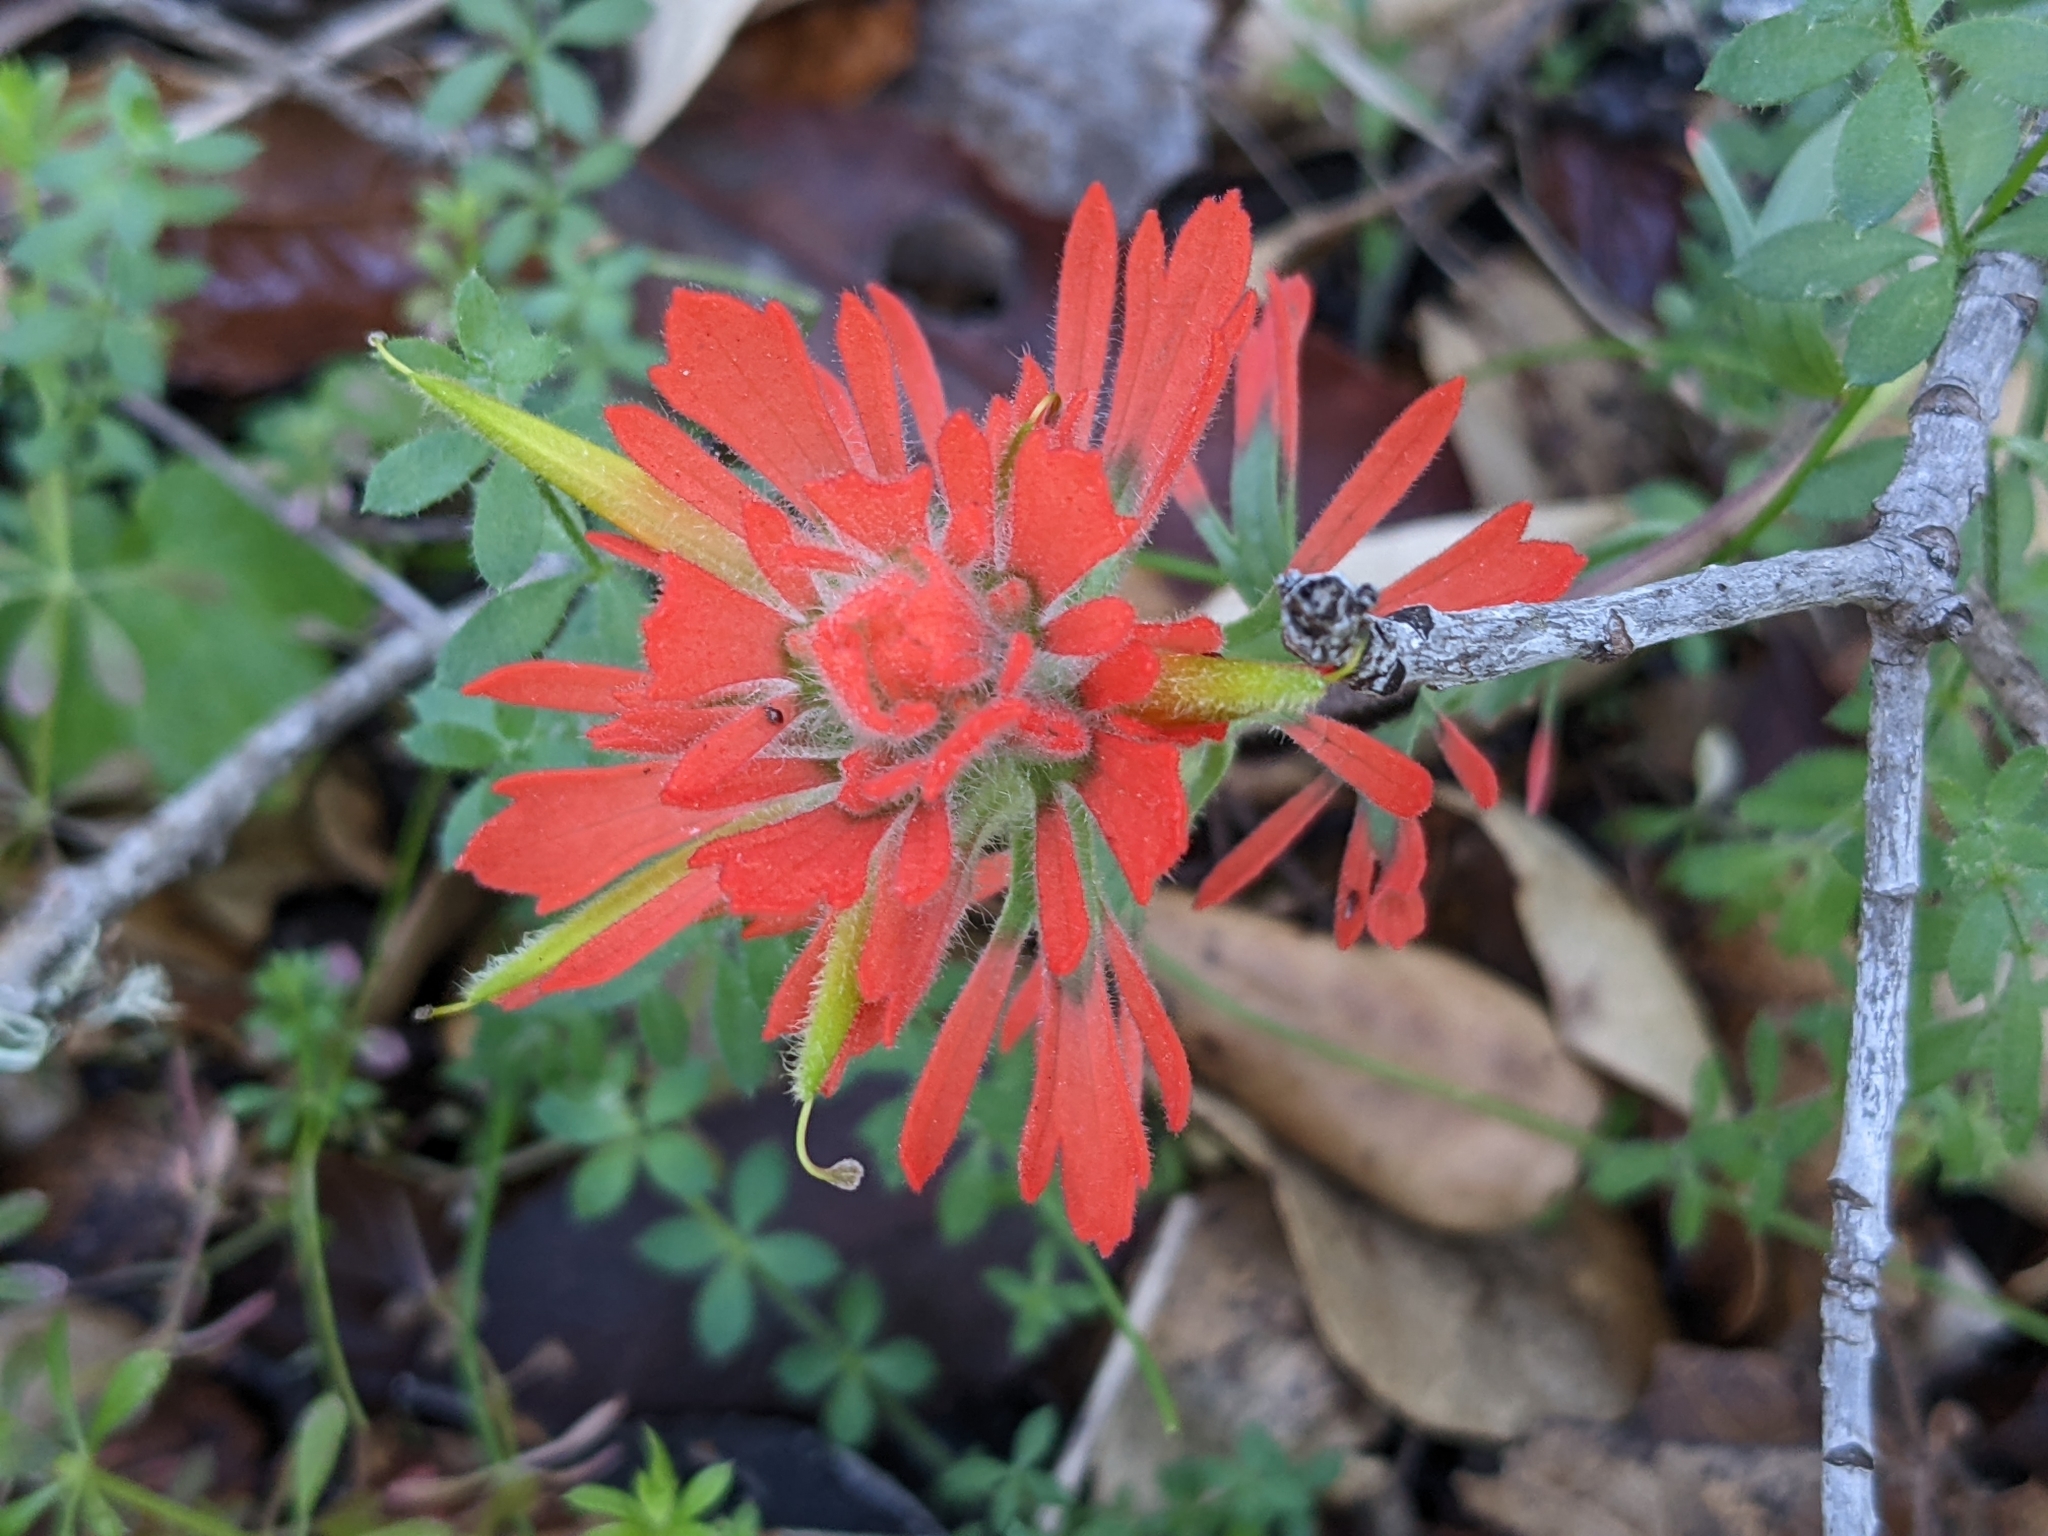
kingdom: Plantae
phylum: Tracheophyta
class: Magnoliopsida
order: Lamiales
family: Orobanchaceae
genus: Castilleja
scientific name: Castilleja affinis
